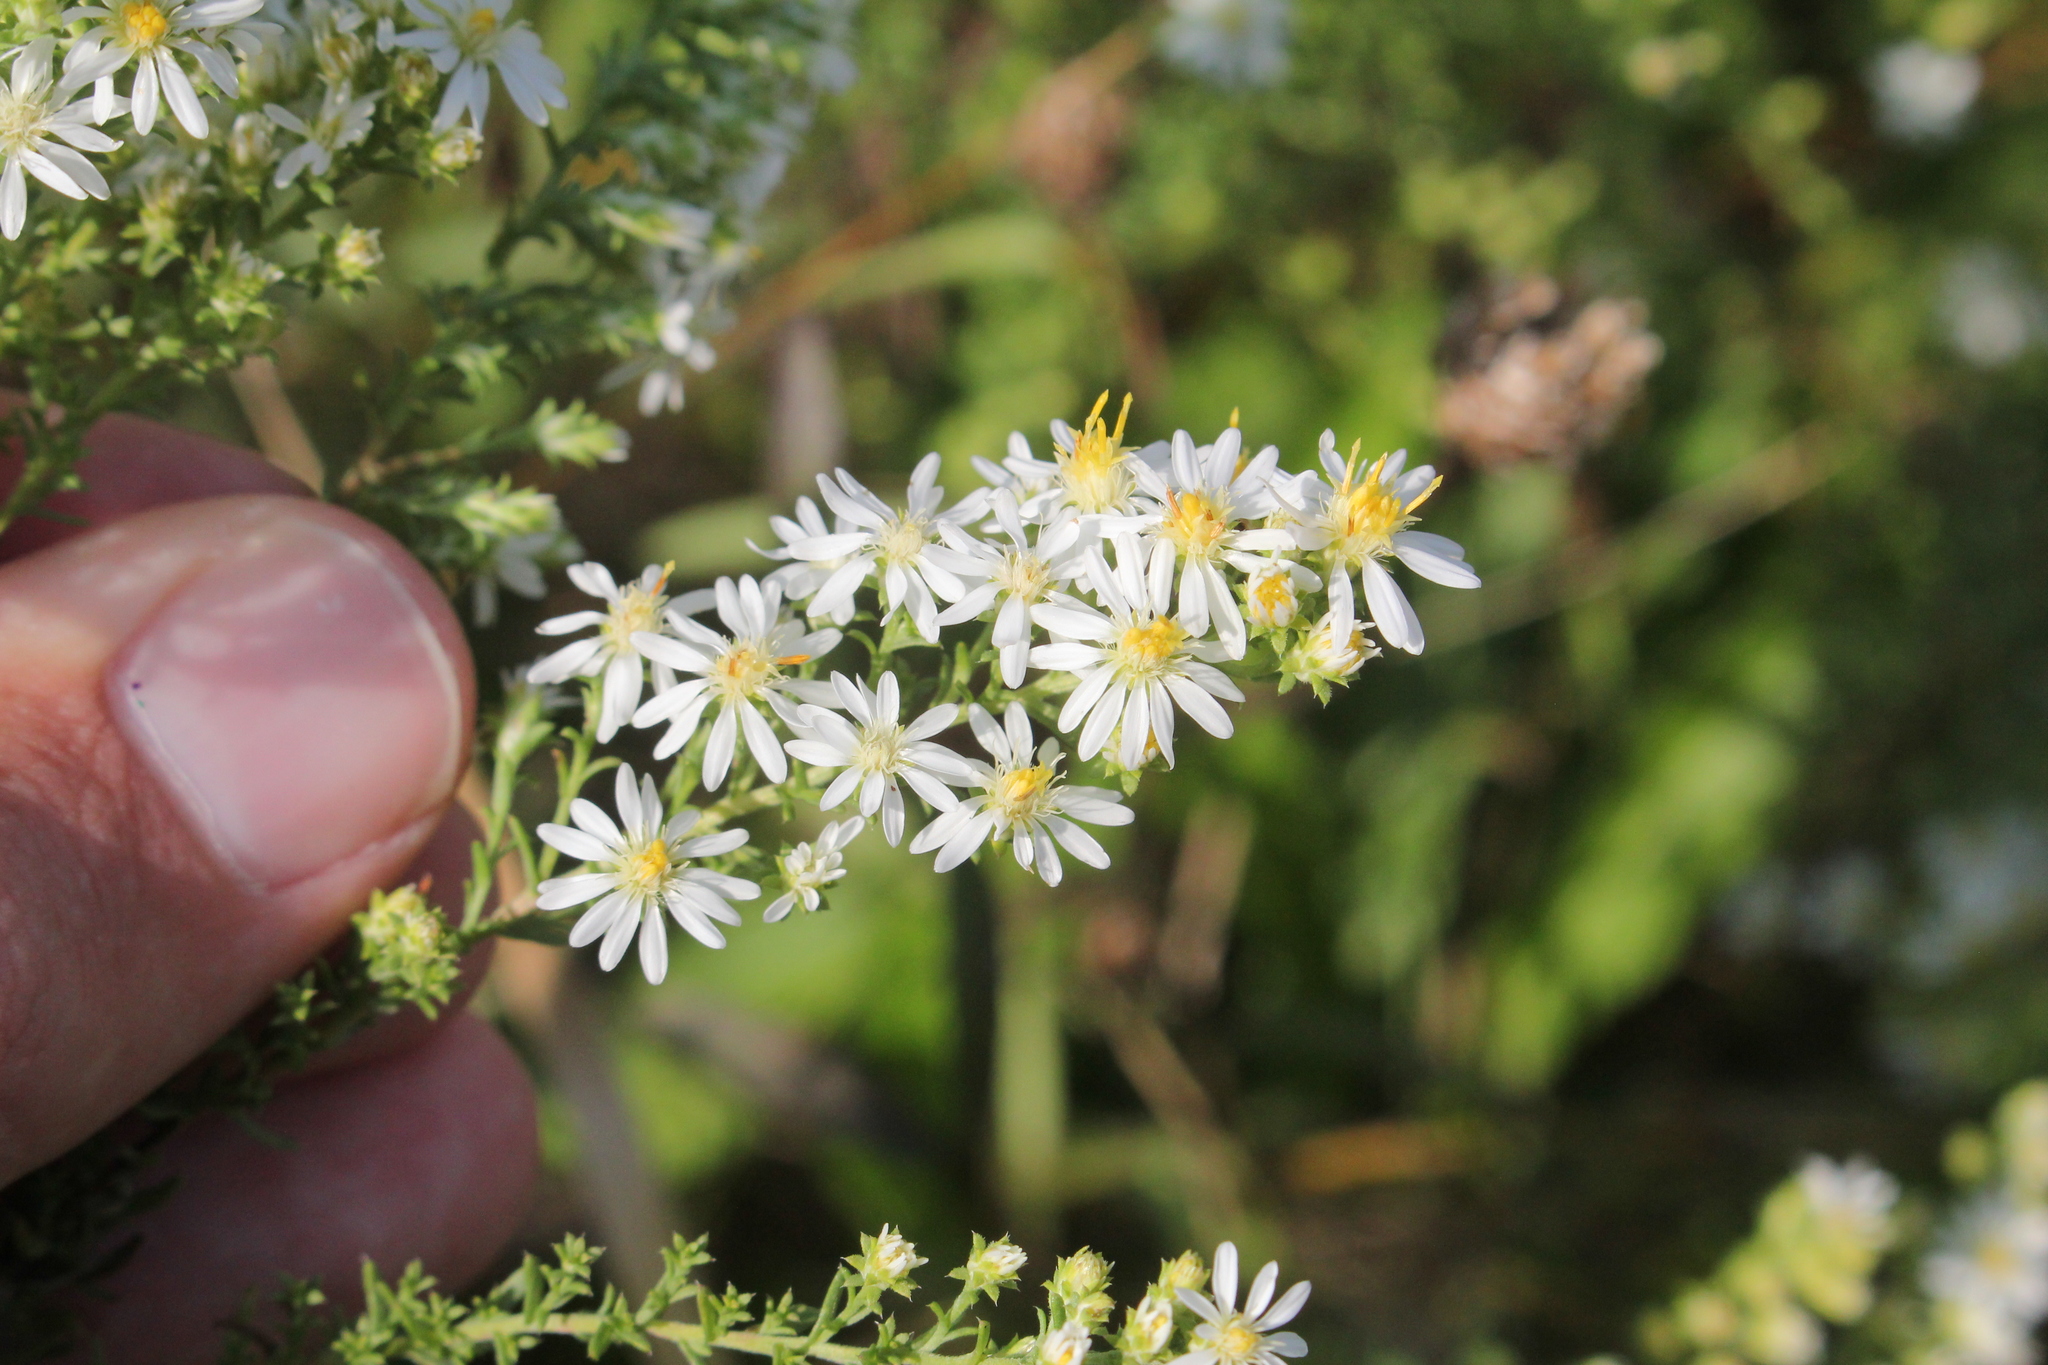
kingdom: Plantae
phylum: Tracheophyta
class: Magnoliopsida
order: Asterales
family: Asteraceae
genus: Symphyotrichum
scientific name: Symphyotrichum ericoides
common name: Heath aster
